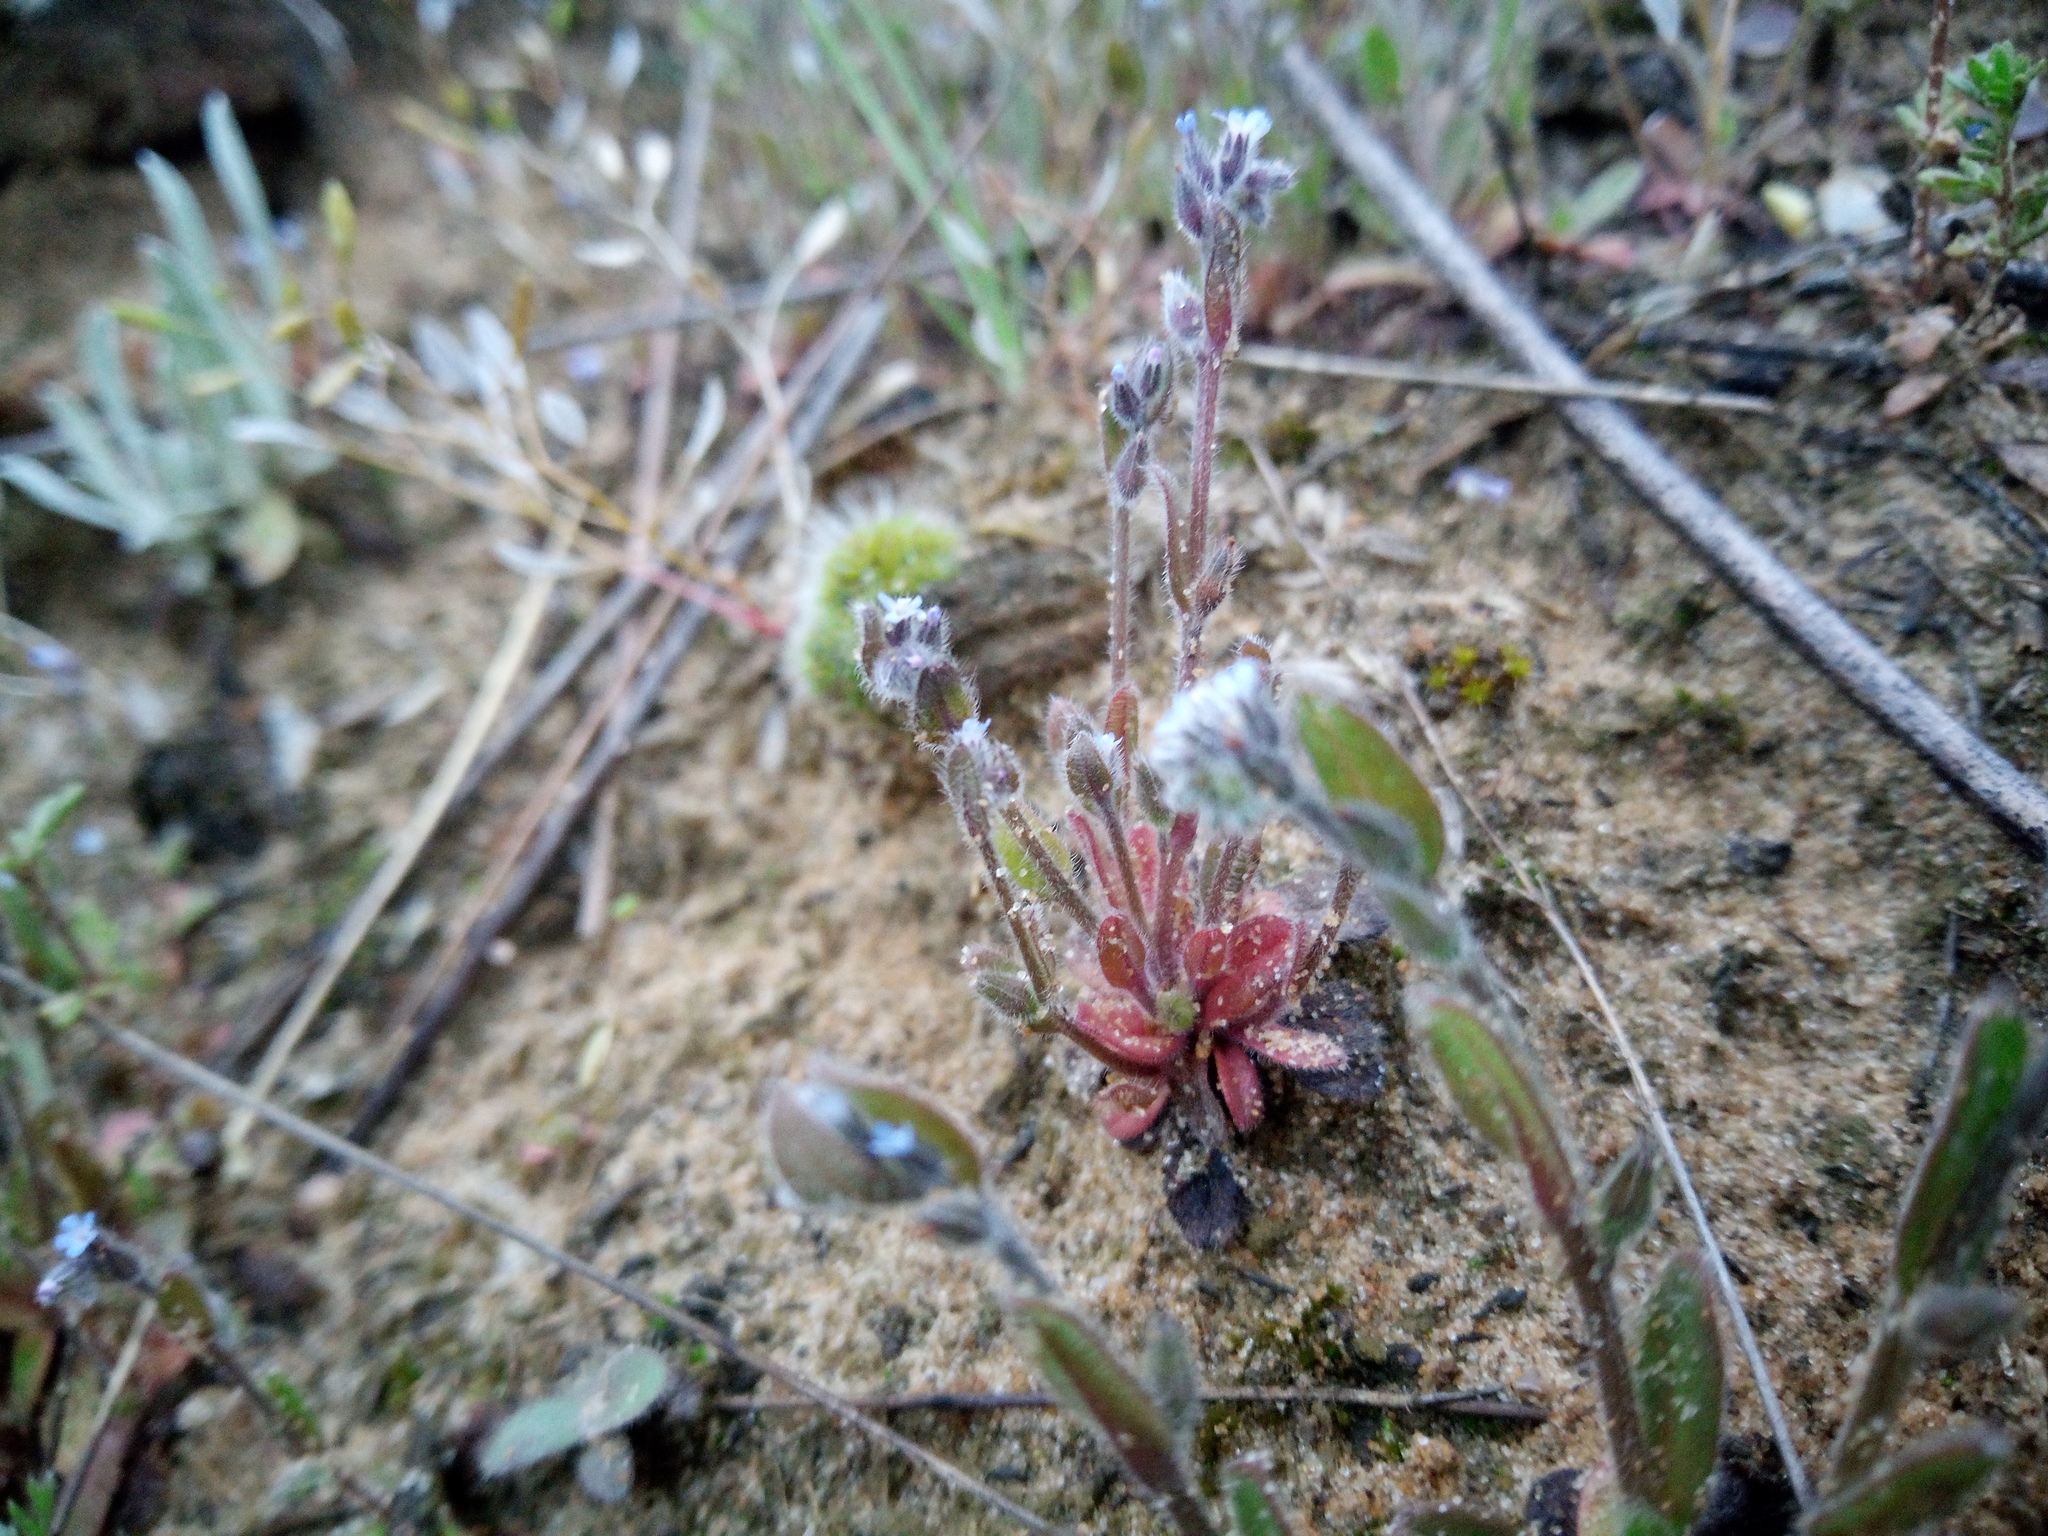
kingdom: Plantae
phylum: Tracheophyta
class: Magnoliopsida
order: Boraginales
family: Boraginaceae
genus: Myosotis
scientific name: Myosotis stricta
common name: Strict forget-me-not
